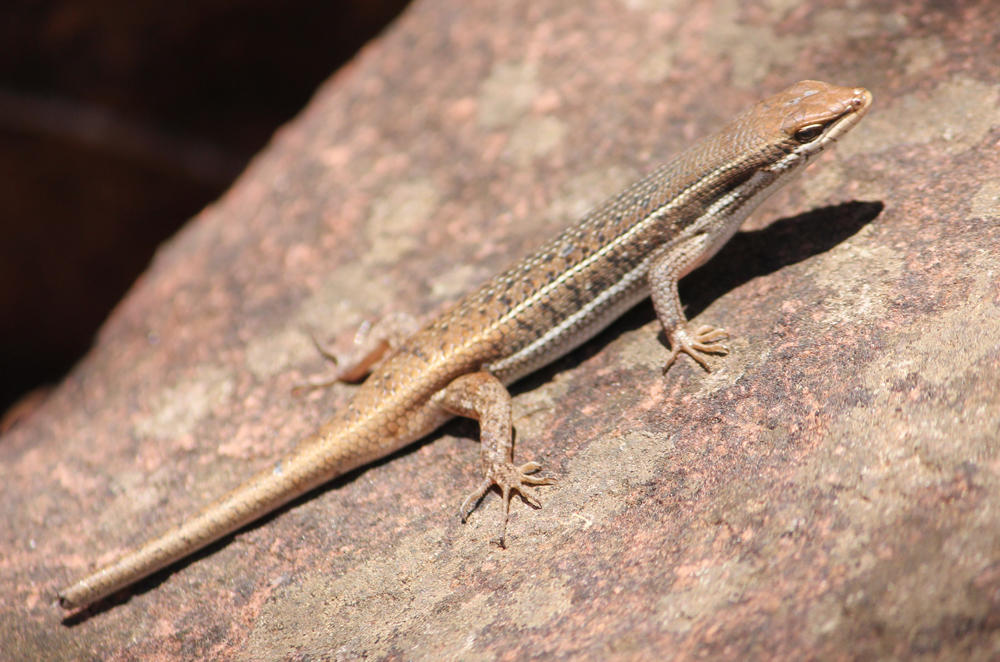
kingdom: Animalia
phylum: Chordata
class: Squamata
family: Scincidae
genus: Trachylepis
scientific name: Trachylepis varia
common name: Eastern variable skink
